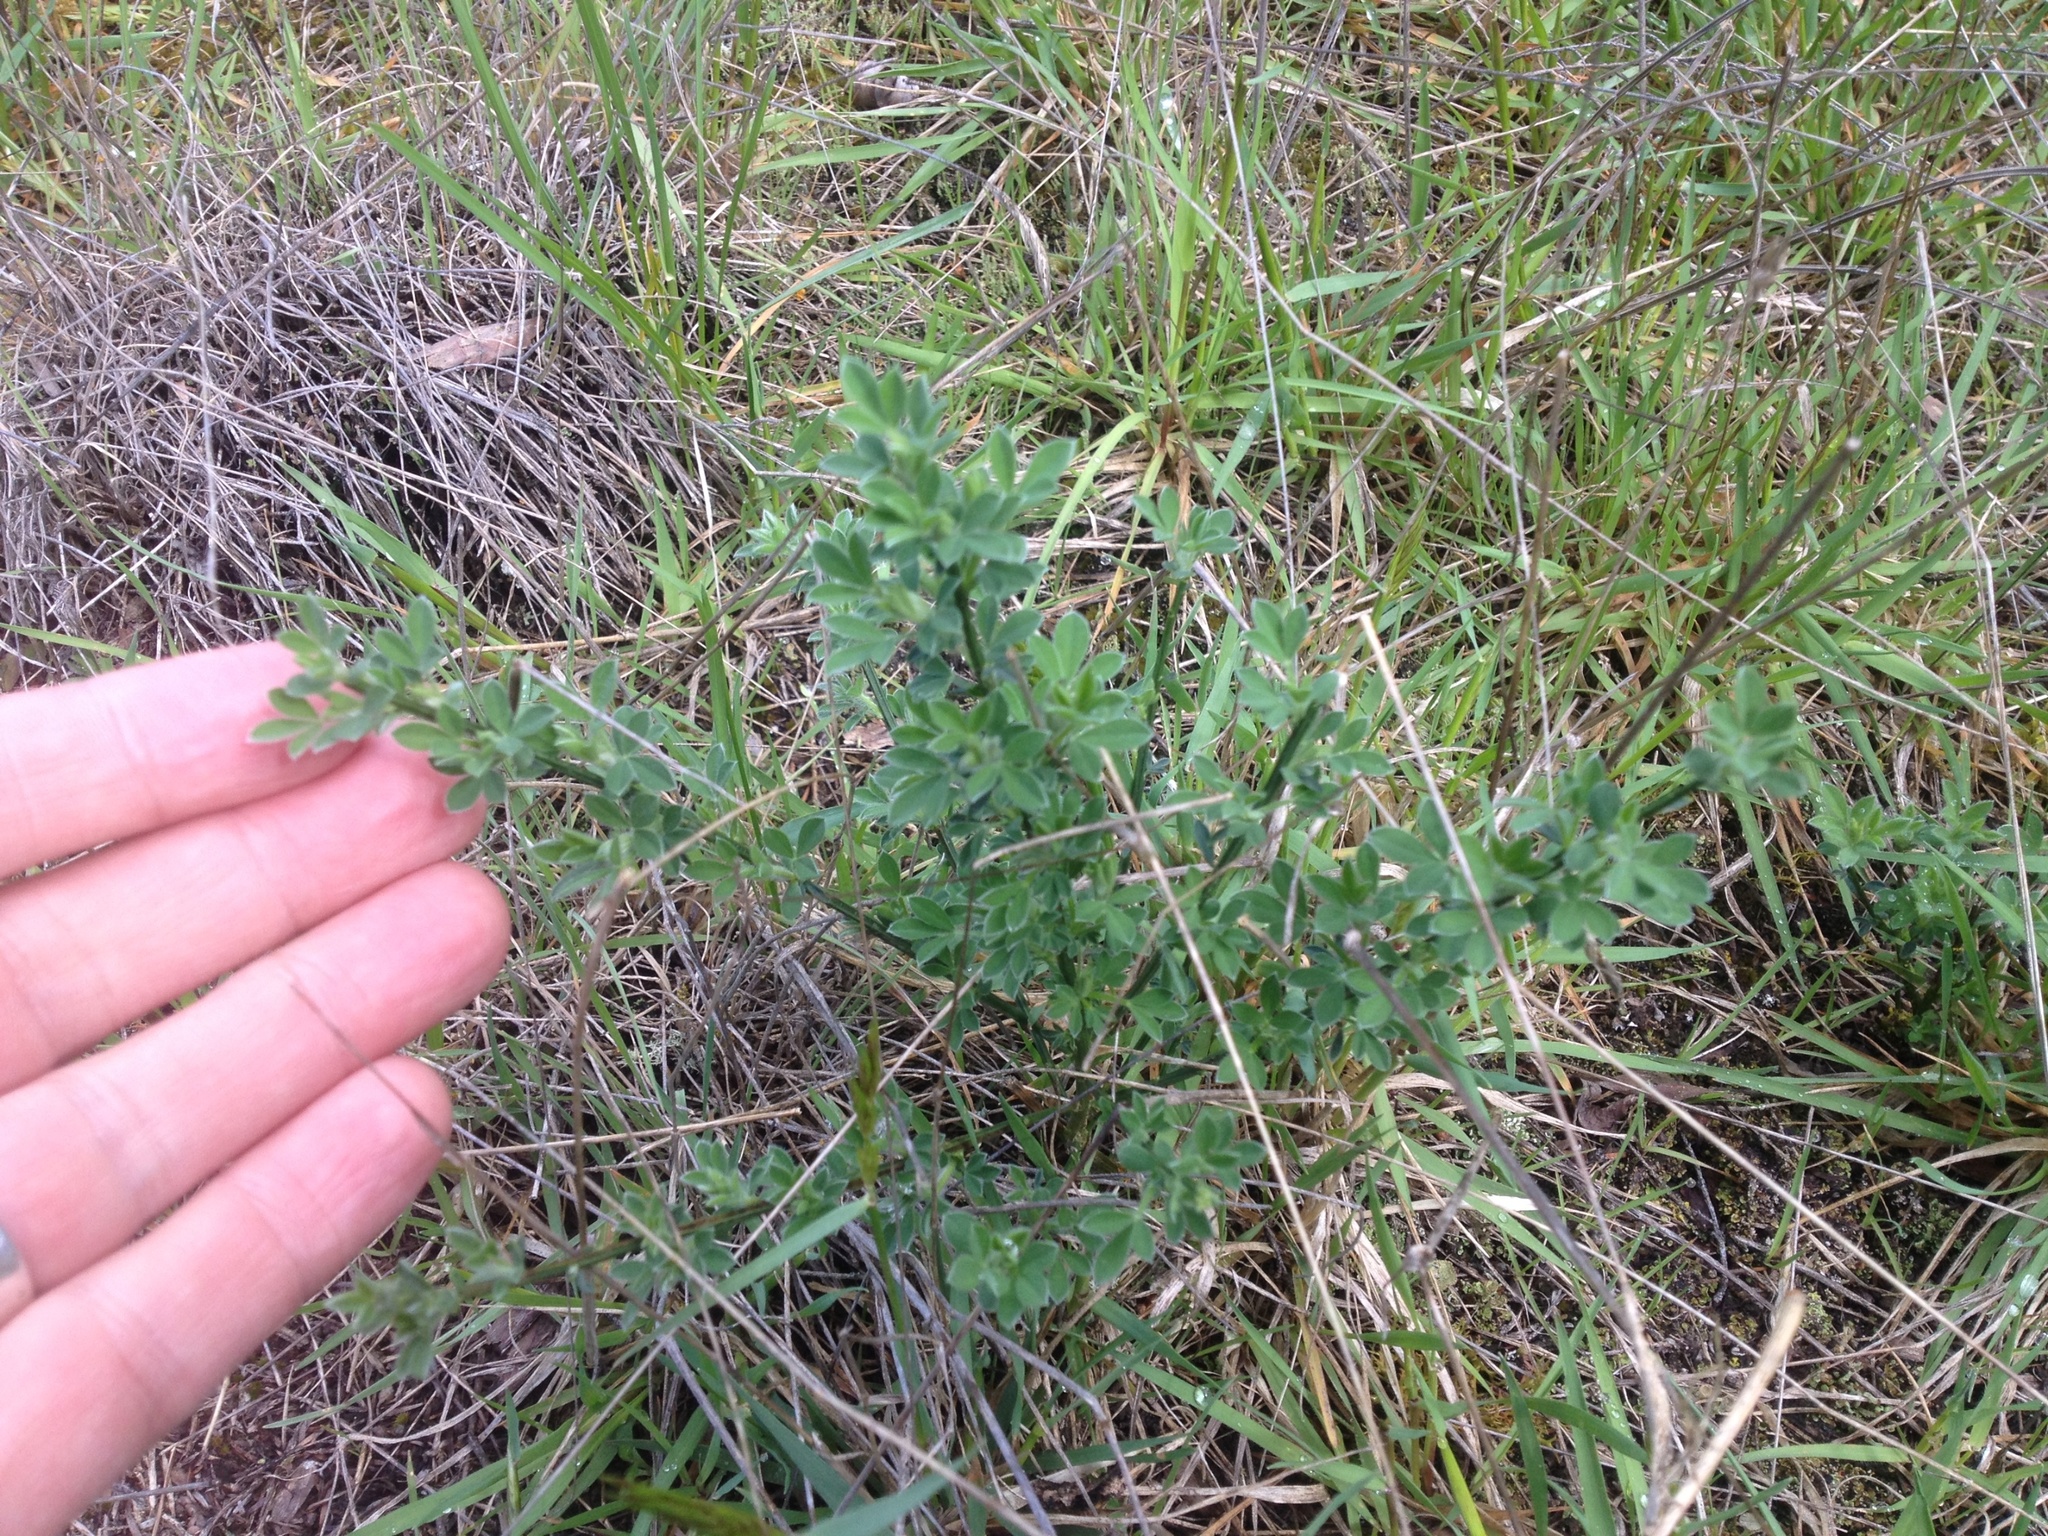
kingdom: Plantae
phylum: Tracheophyta
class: Magnoliopsida
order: Fabales
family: Fabaceae
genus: Cytisus
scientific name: Cytisus scoparius
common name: Scotch broom
